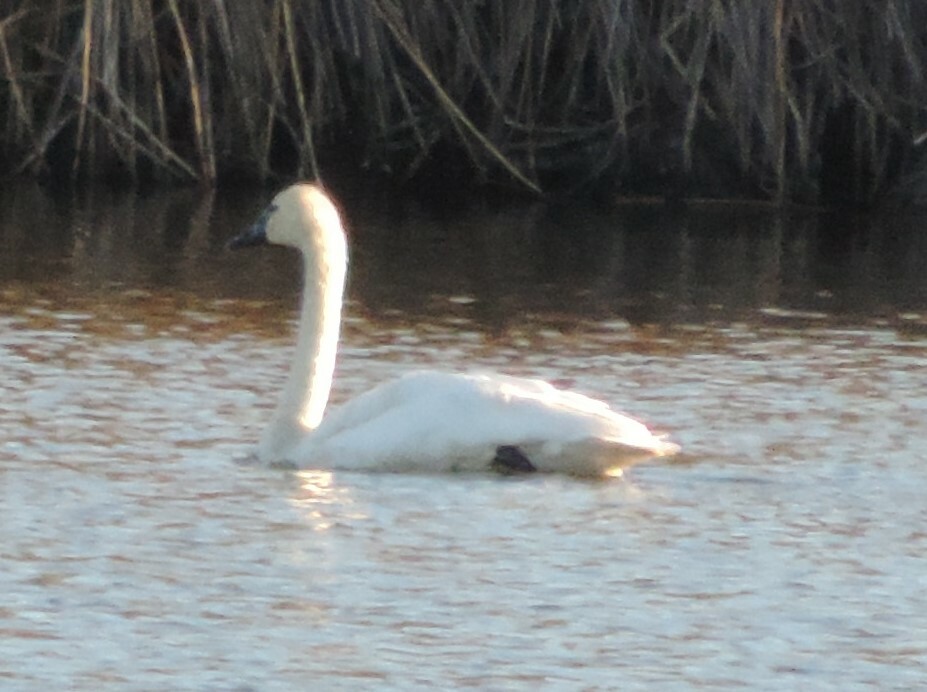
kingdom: Animalia
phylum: Chordata
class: Aves
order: Anseriformes
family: Anatidae
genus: Cygnus
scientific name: Cygnus buccinator
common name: Trumpeter swan
